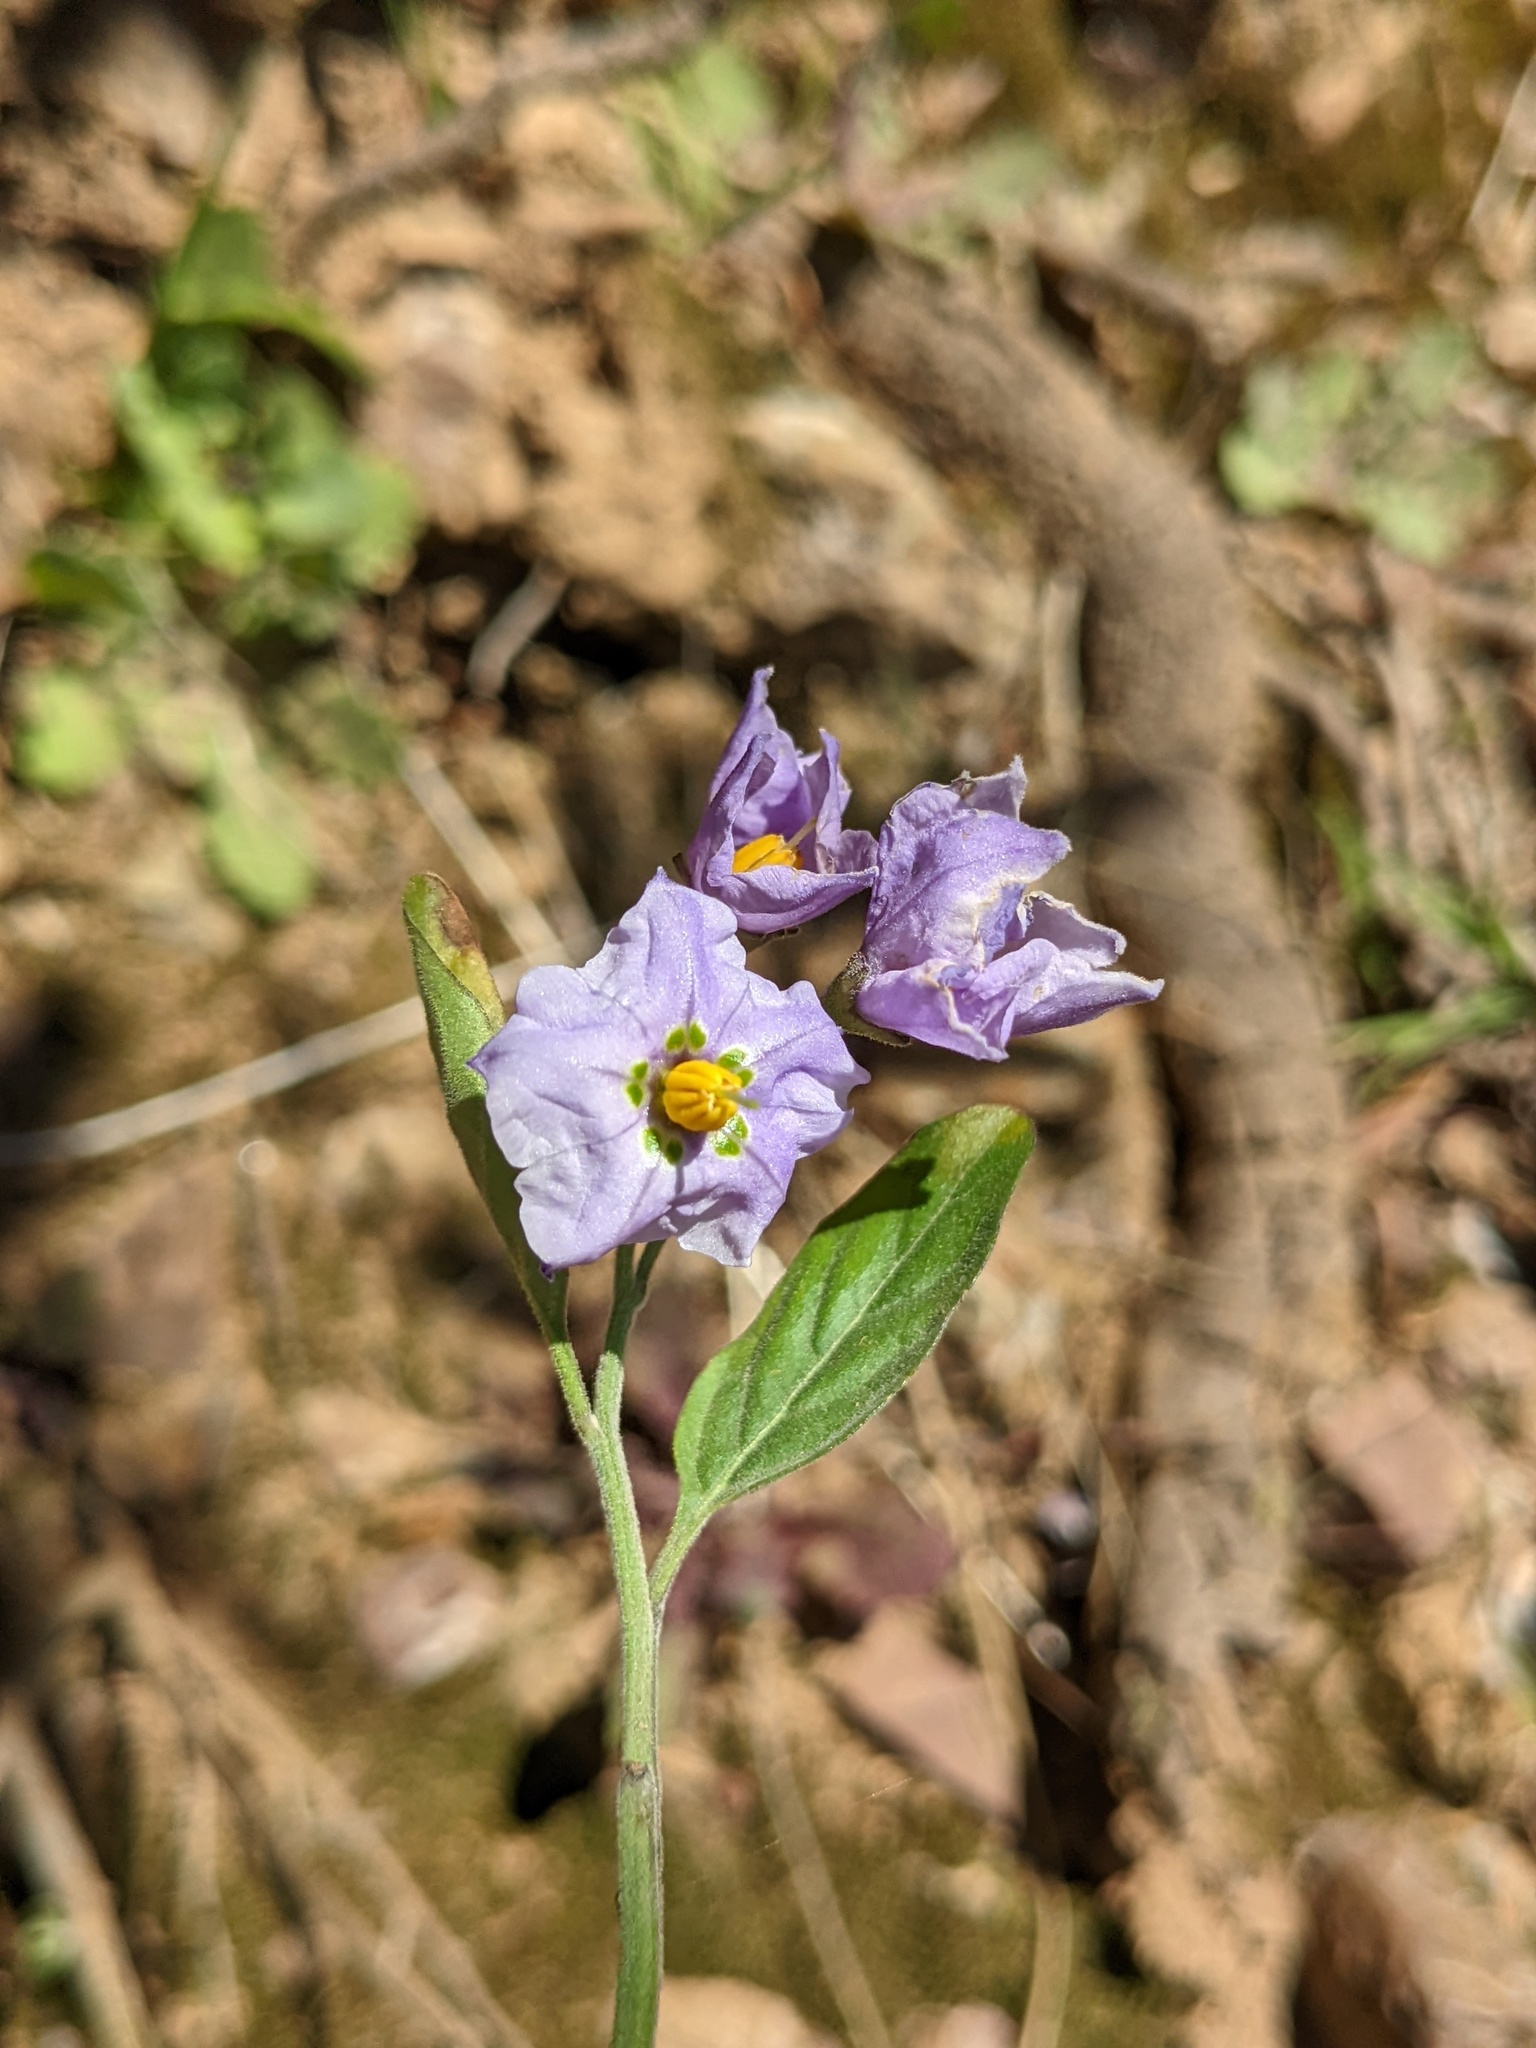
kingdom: Plantae
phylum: Tracheophyta
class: Magnoliopsida
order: Solanales
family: Solanaceae
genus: Solanum
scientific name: Solanum umbelliferum
